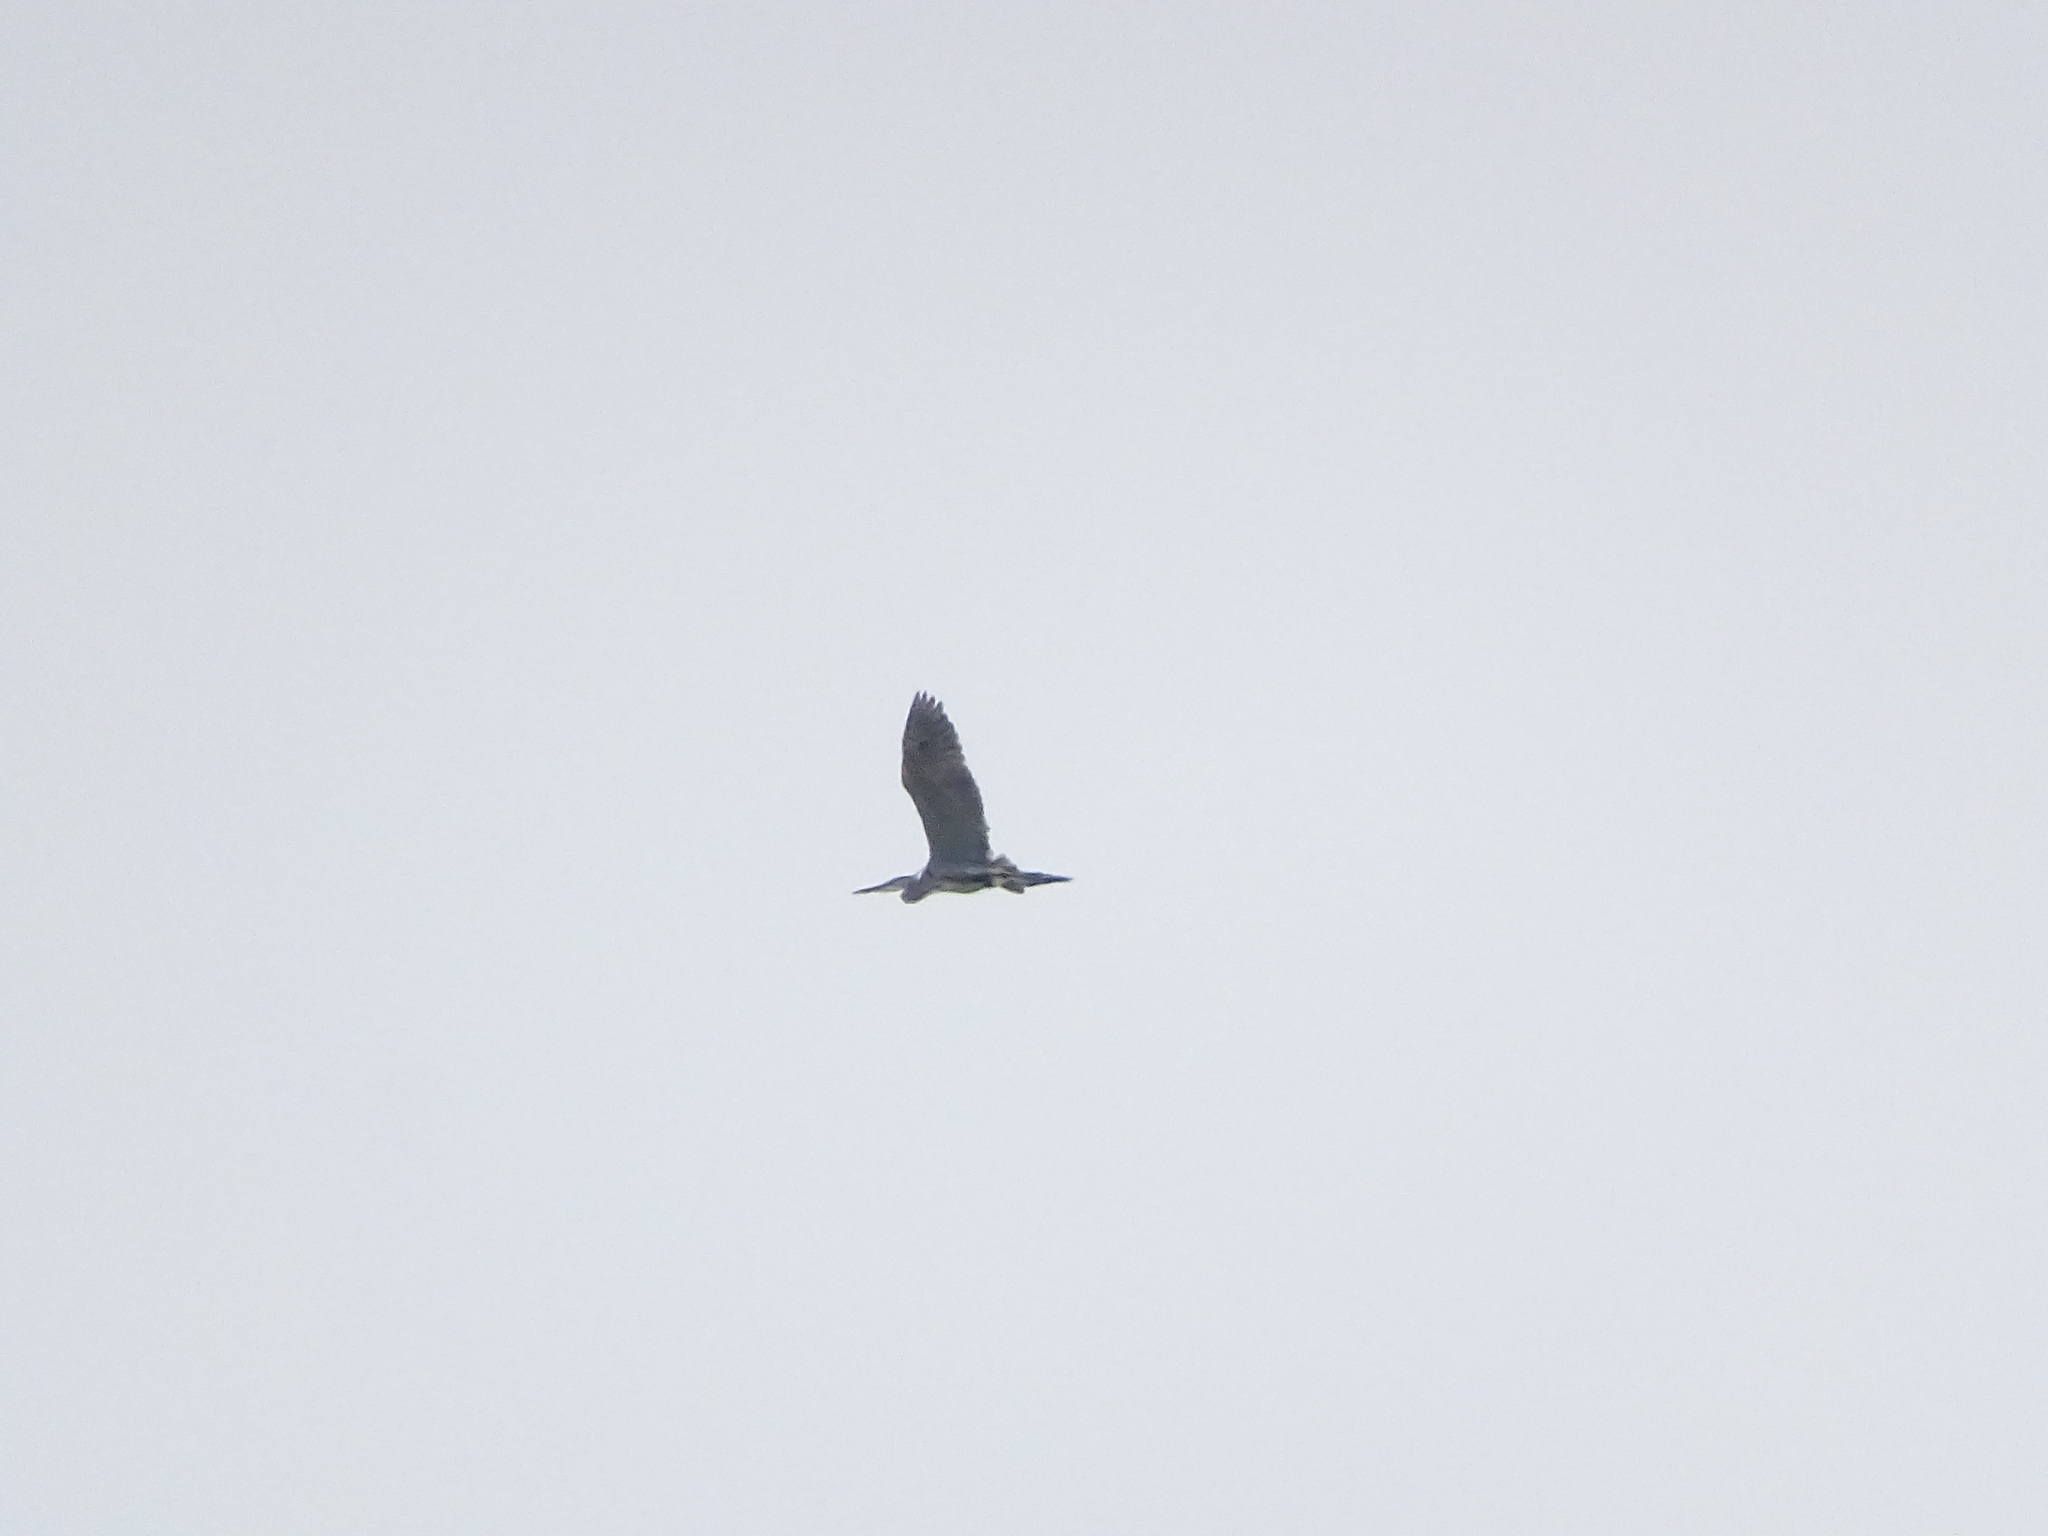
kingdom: Animalia
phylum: Chordata
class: Aves
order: Pelecaniformes
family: Ardeidae
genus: Ardea
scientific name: Ardea herodias
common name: Great blue heron
